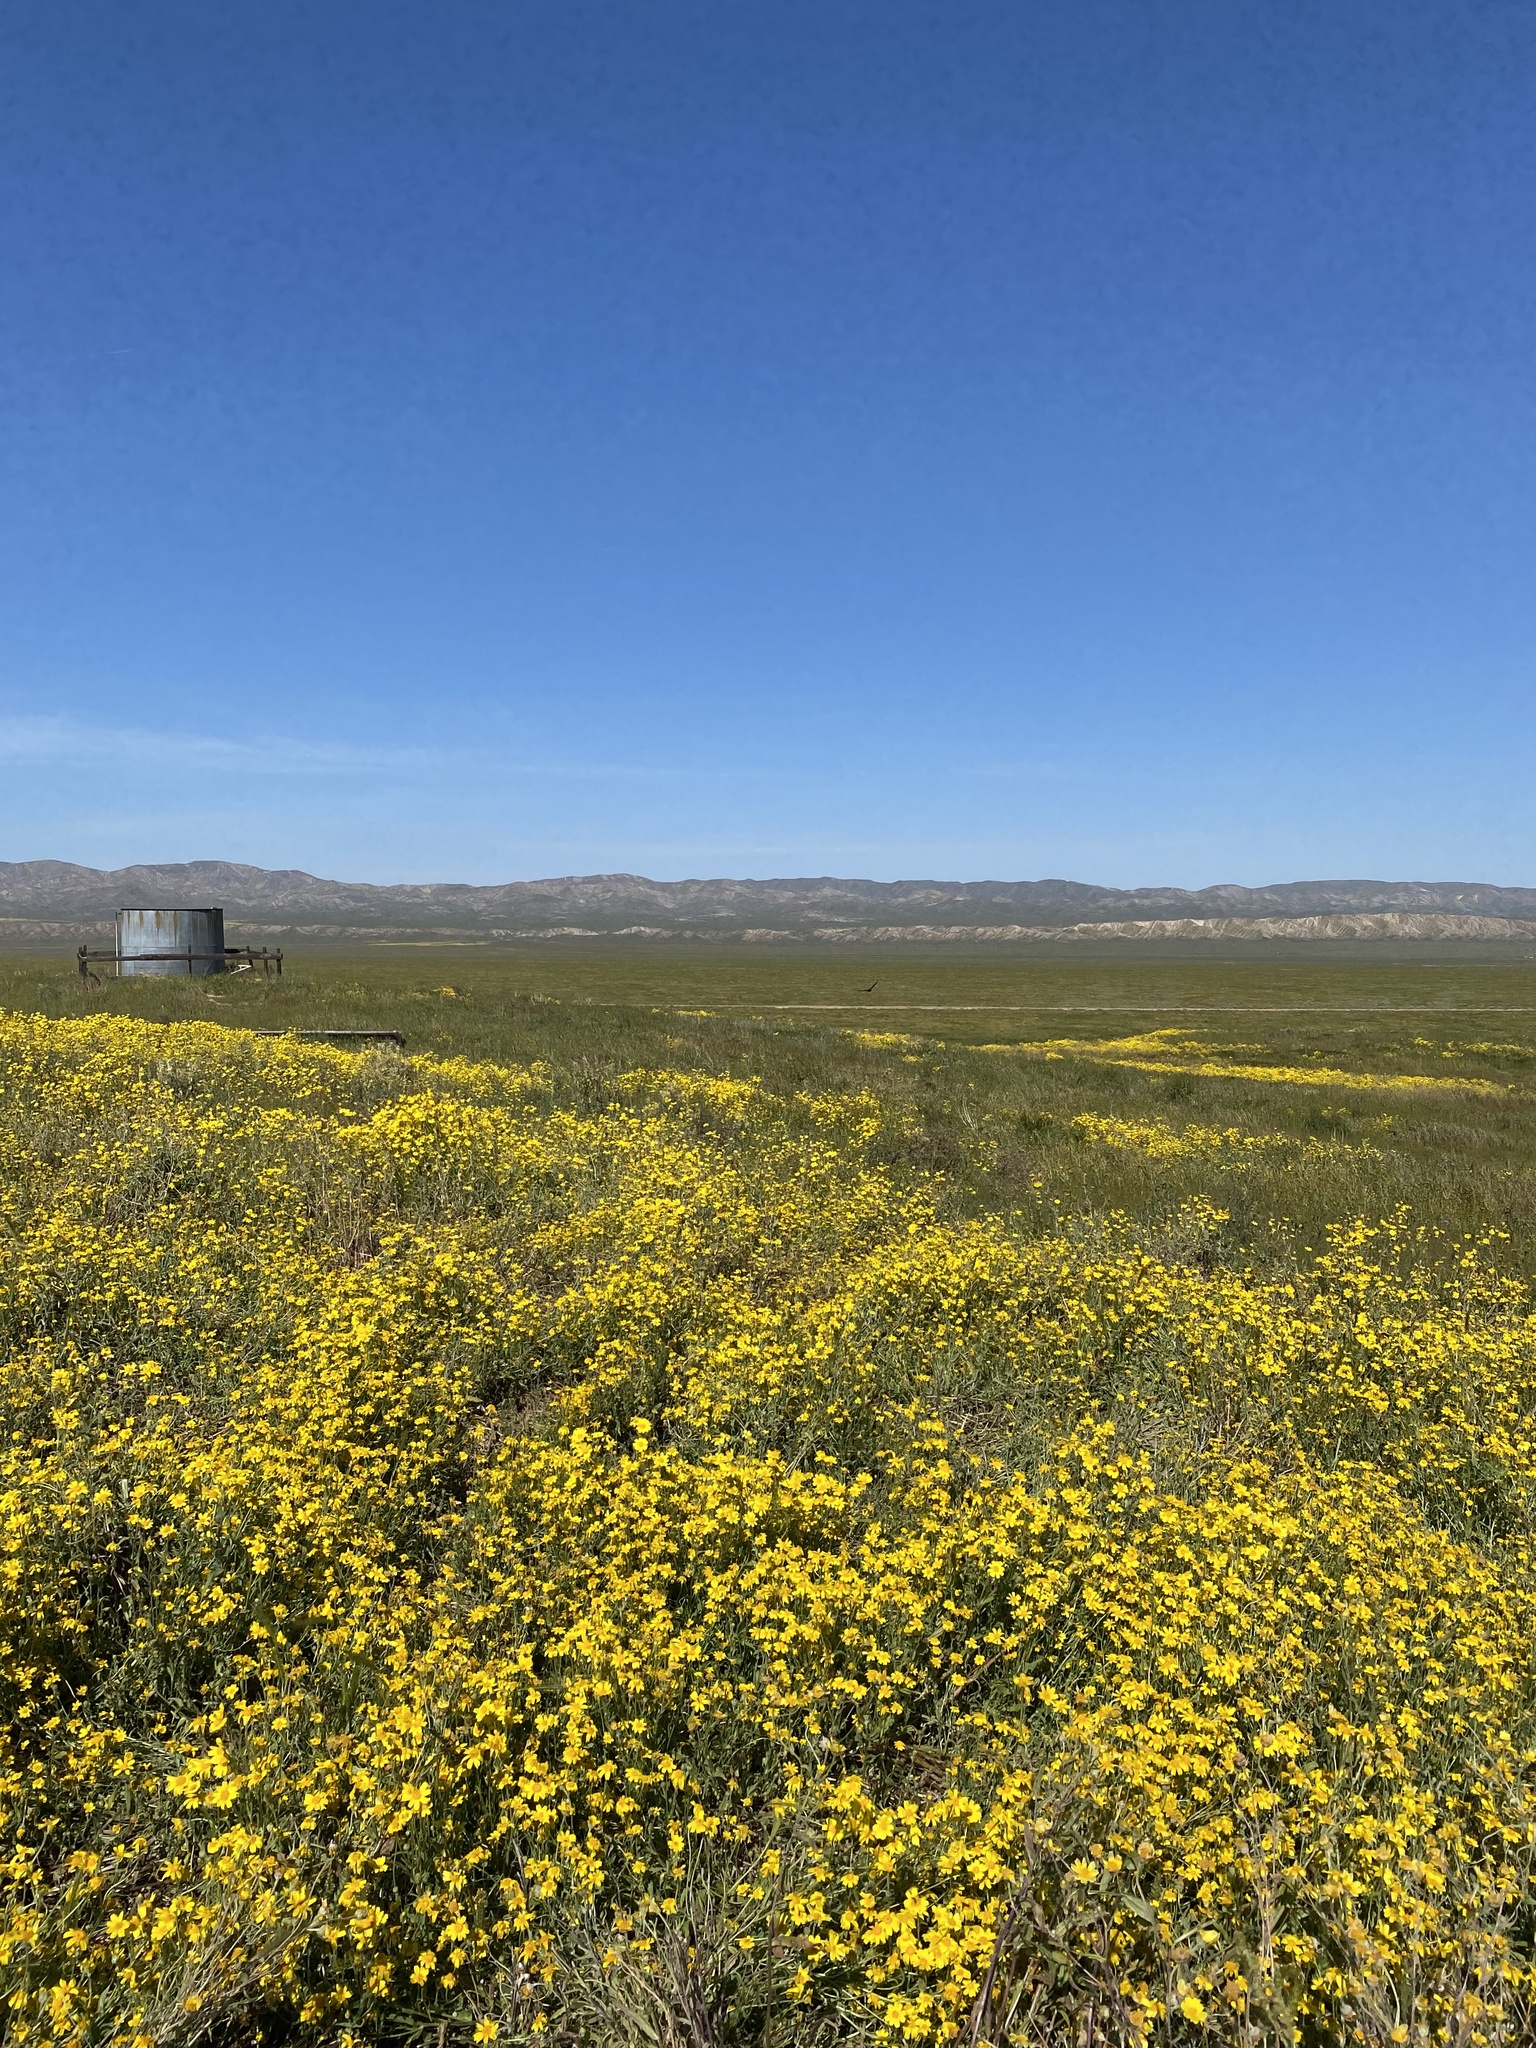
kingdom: Plantae
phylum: Tracheophyta
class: Magnoliopsida
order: Asterales
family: Asteraceae
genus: Monolopia
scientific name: Monolopia lanceolata
